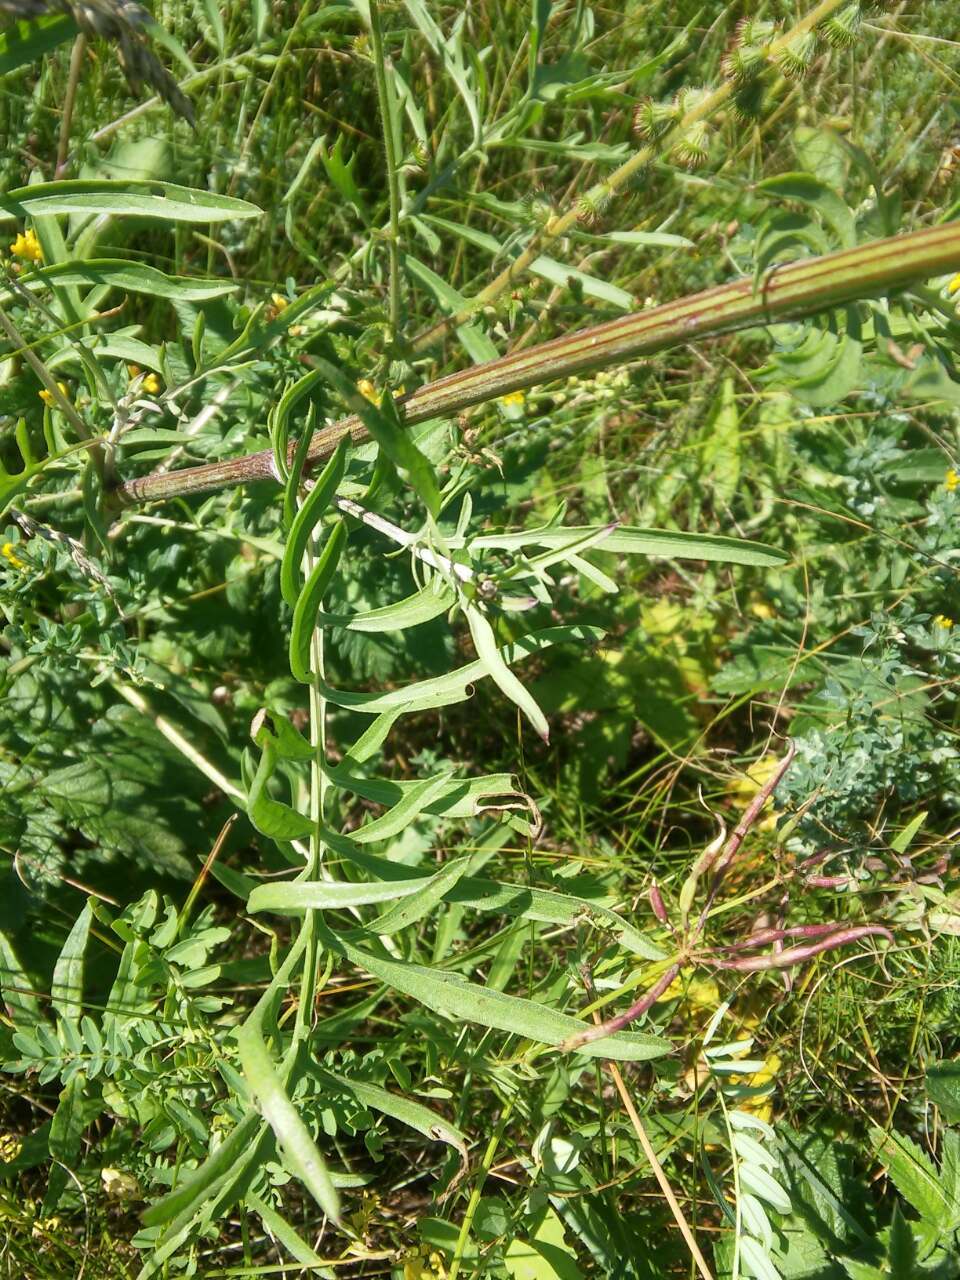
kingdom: Plantae
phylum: Tracheophyta
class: Magnoliopsida
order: Asterales
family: Asteraceae
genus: Centaurea
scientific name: Centaurea scabiosa
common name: Greater knapweed
